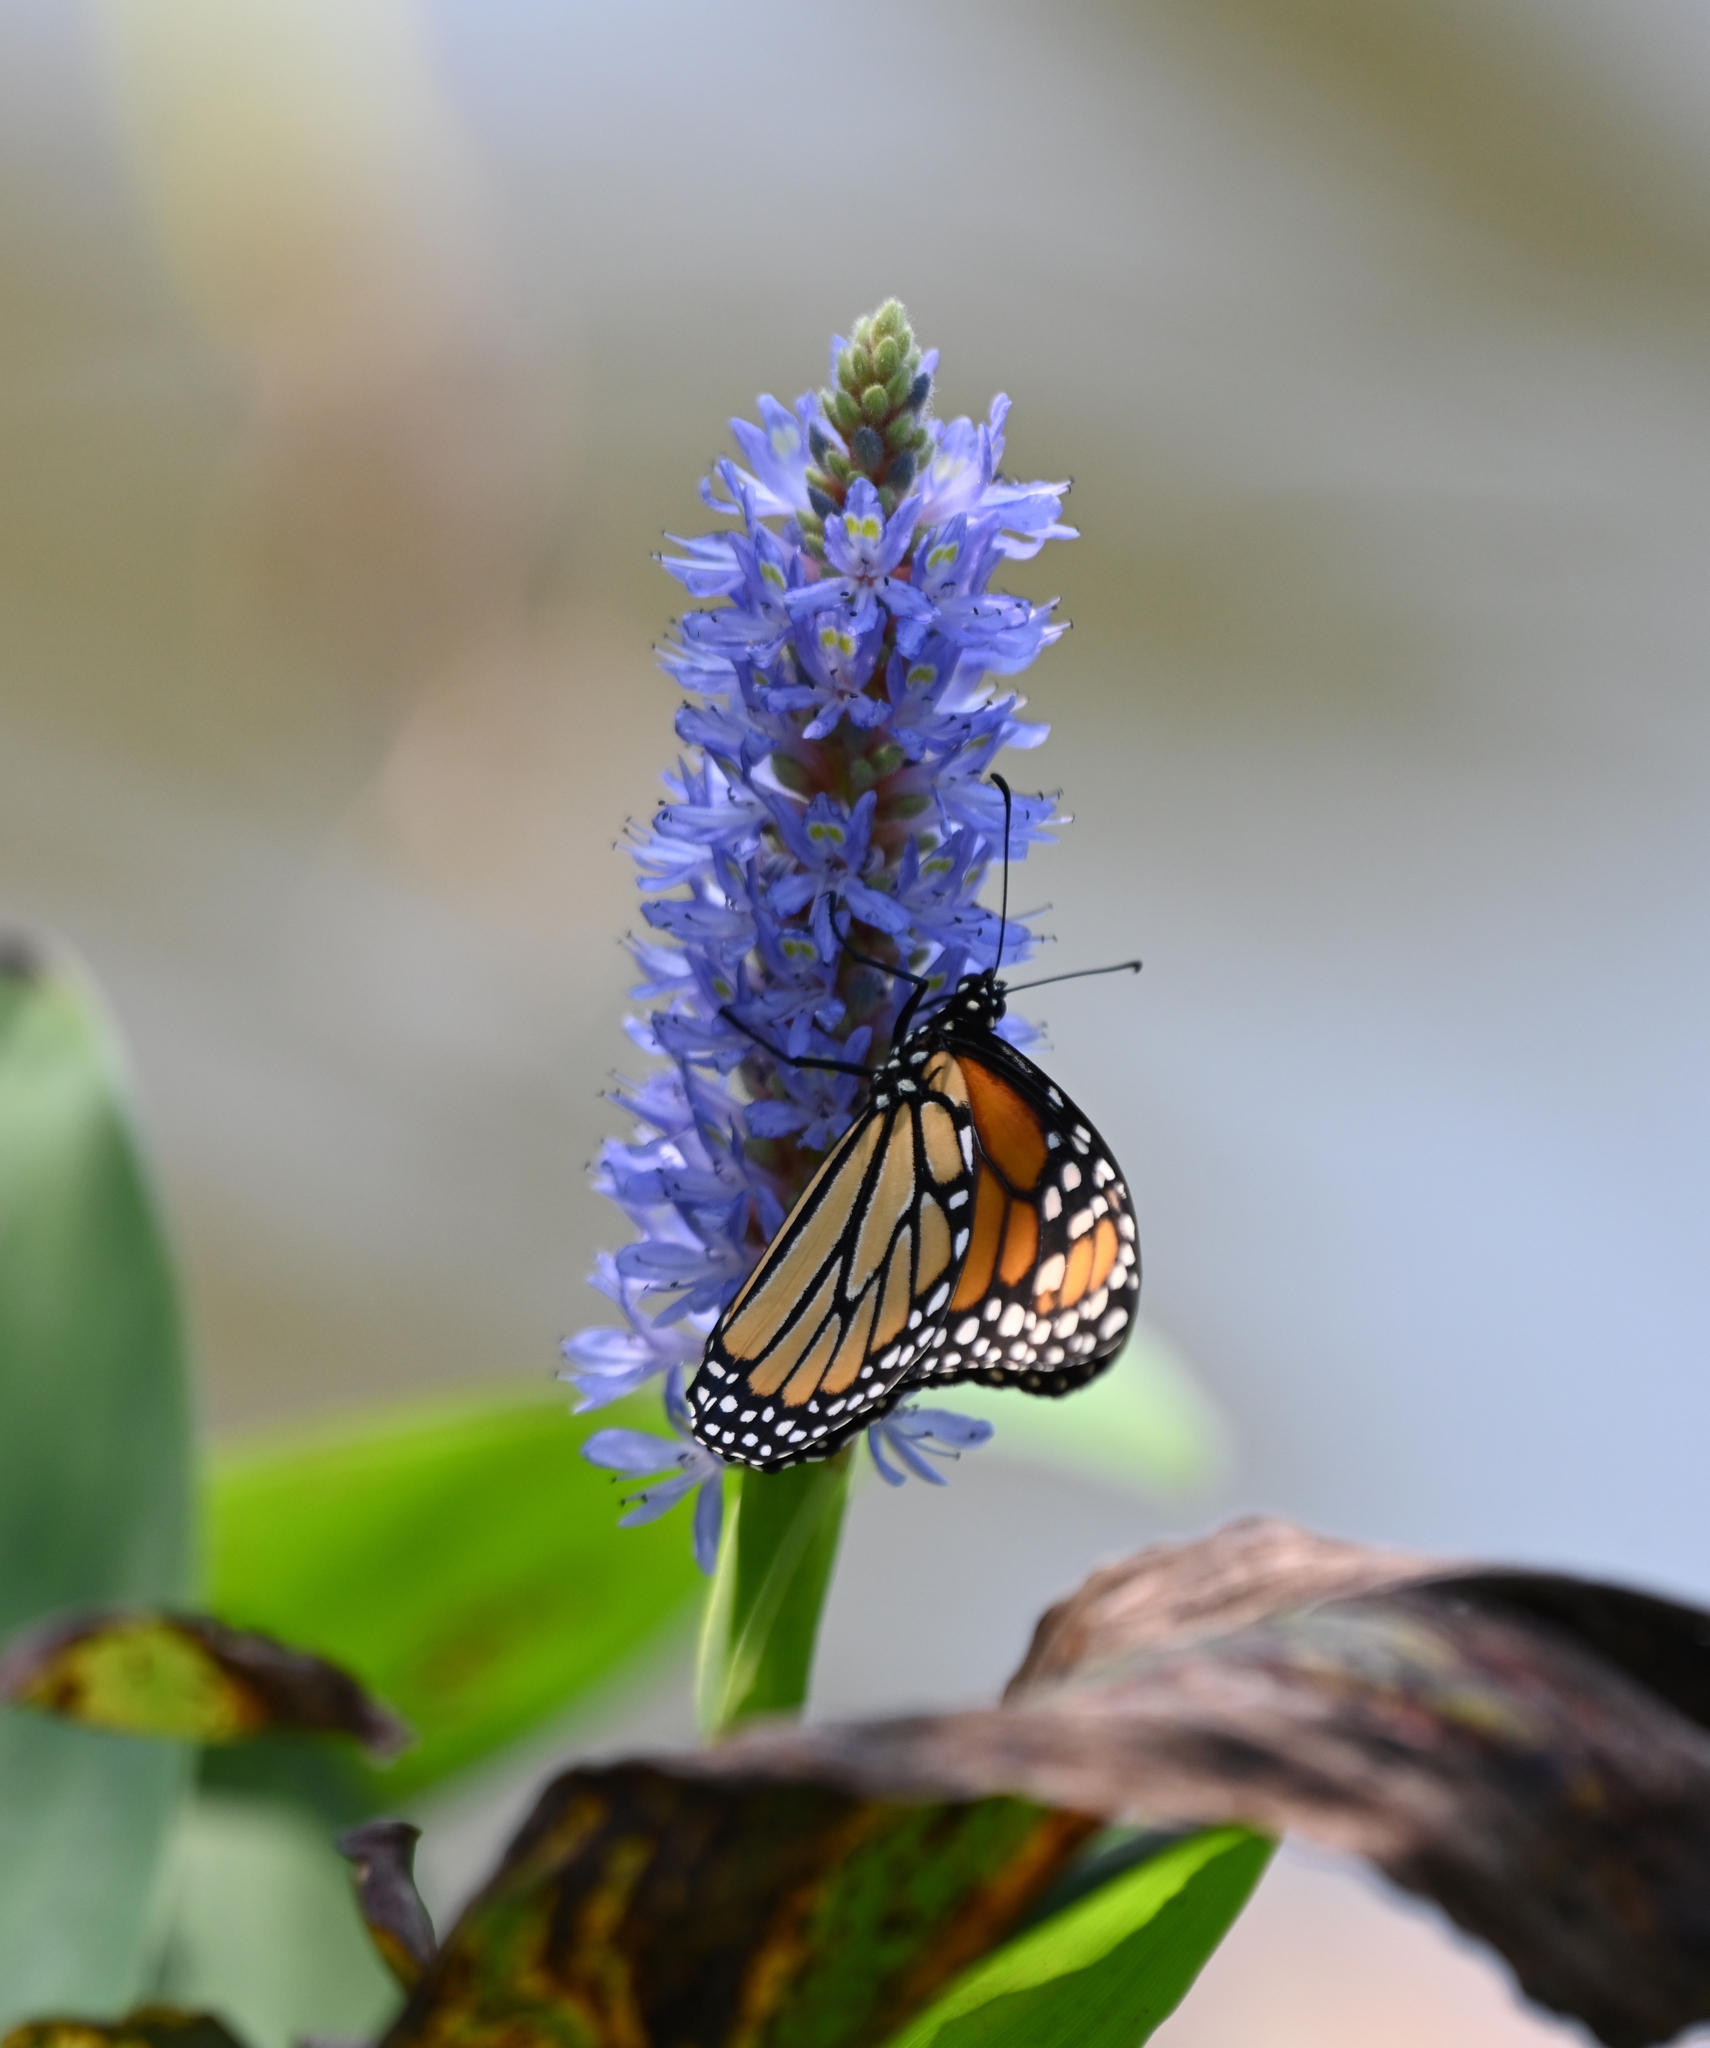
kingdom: Animalia
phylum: Arthropoda
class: Insecta
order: Lepidoptera
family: Nymphalidae
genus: Danaus
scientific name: Danaus plexippus
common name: Monarch
